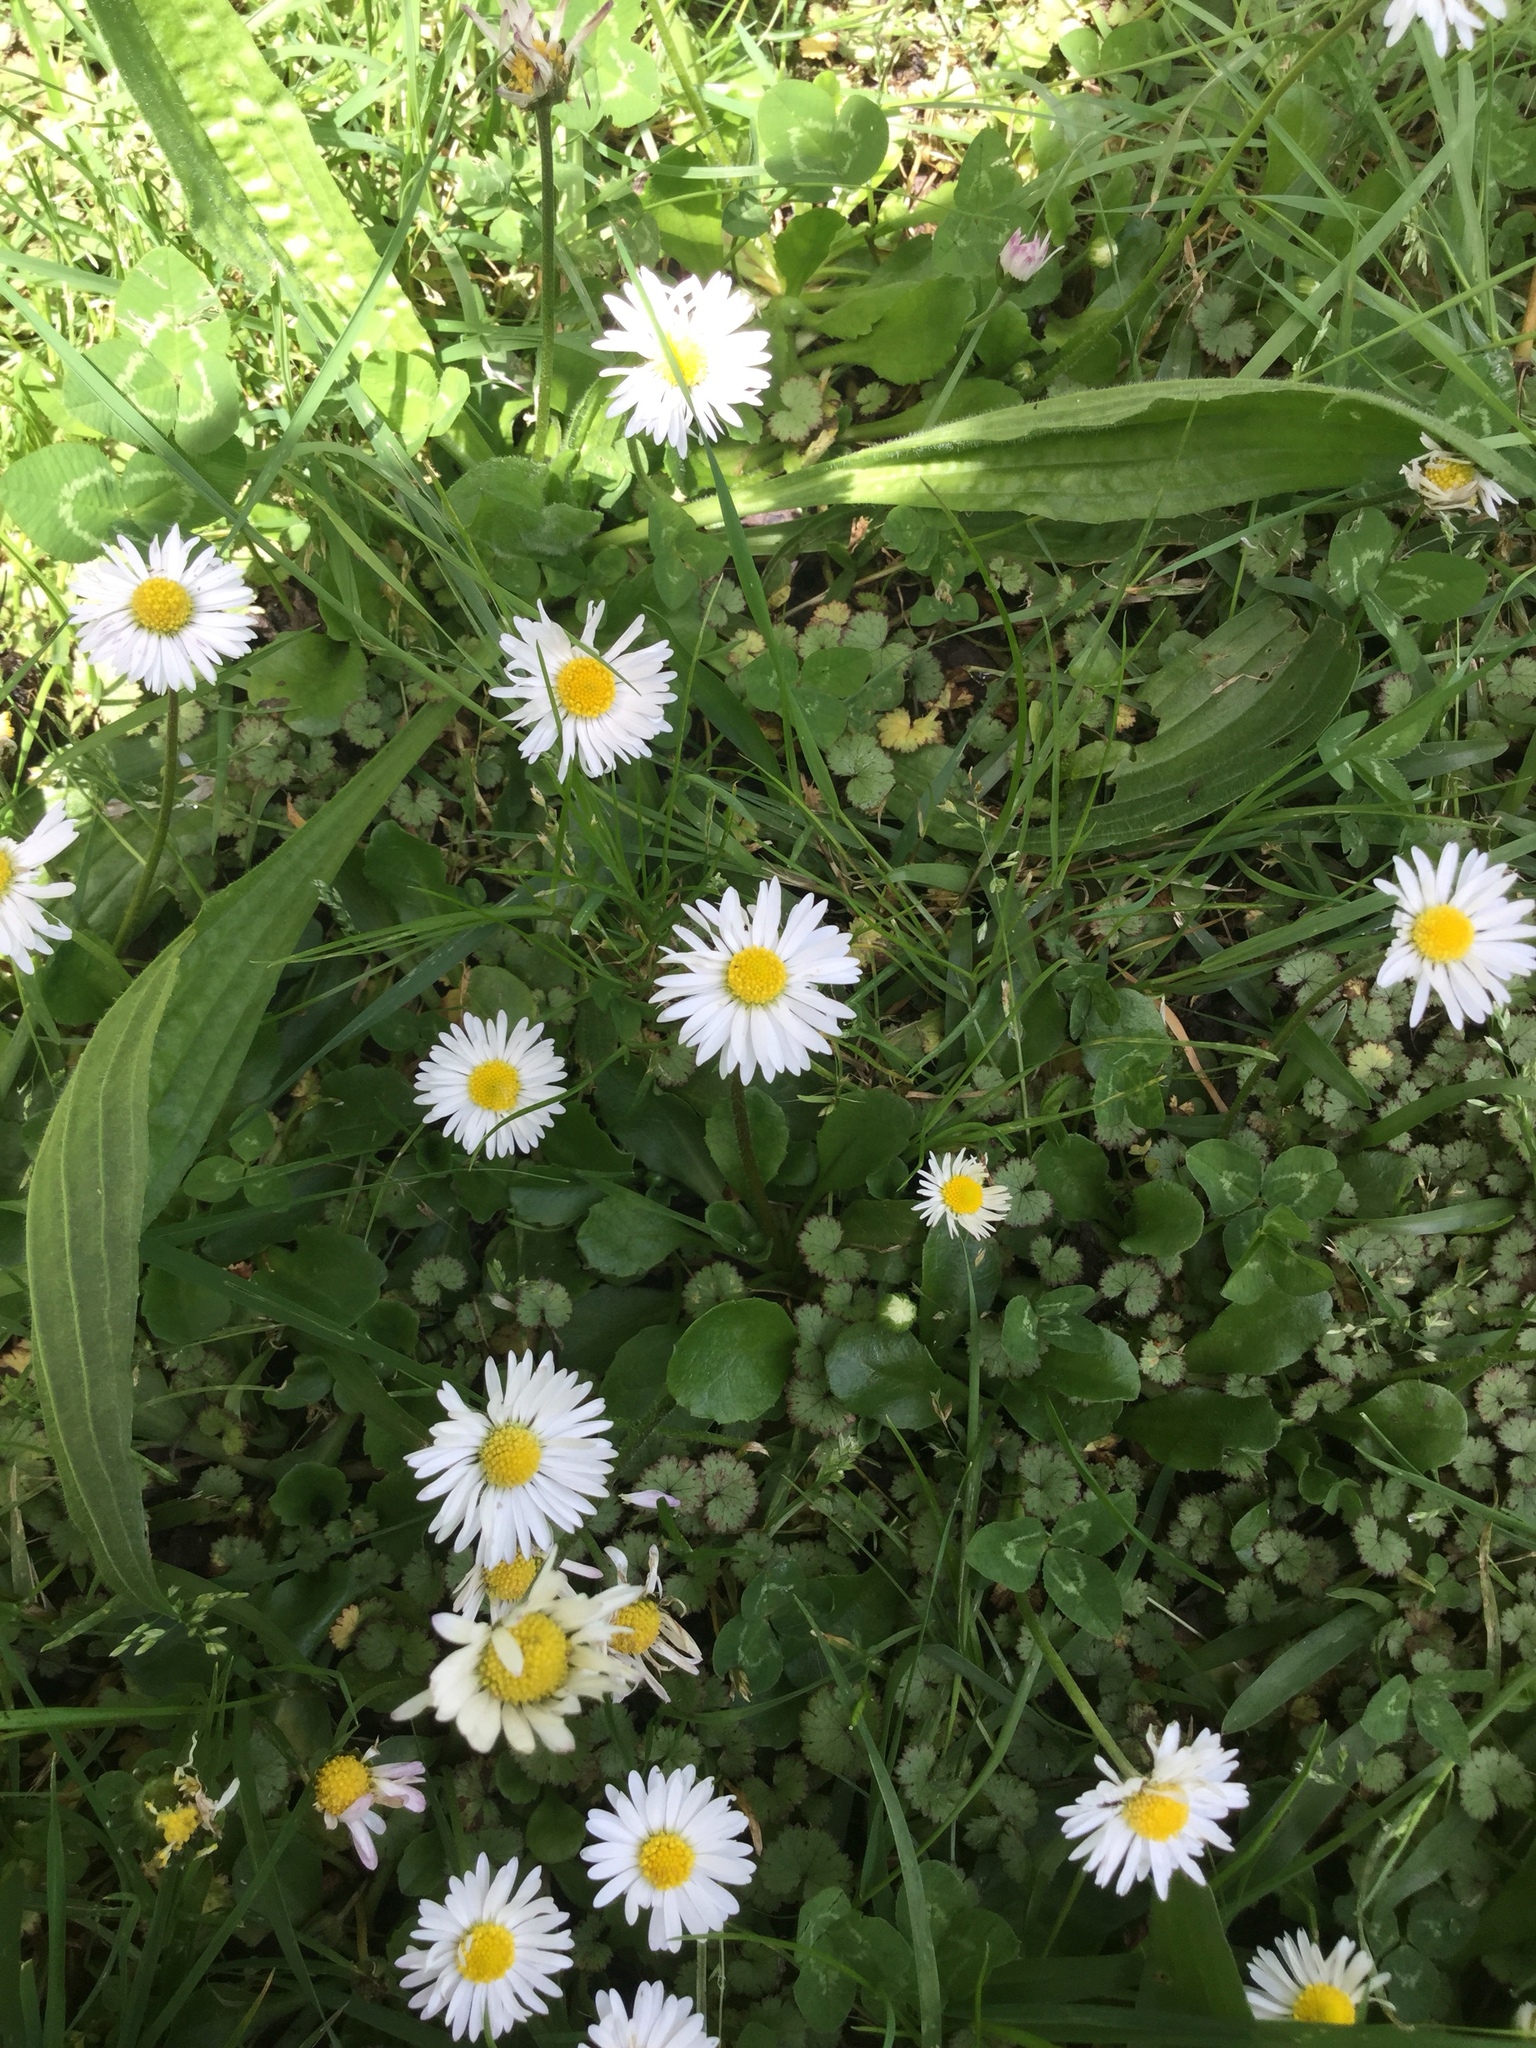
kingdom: Plantae
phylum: Tracheophyta
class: Magnoliopsida
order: Asterales
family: Asteraceae
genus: Bellis
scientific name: Bellis perennis
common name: Lawndaisy
